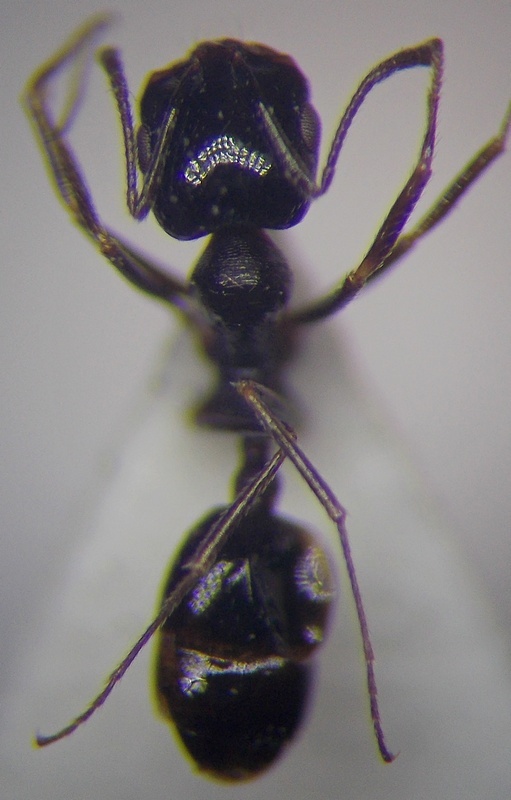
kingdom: Animalia
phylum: Arthropoda
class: Insecta
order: Hymenoptera
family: Formicidae
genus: Monomorium
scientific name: Monomorium barbatulum
